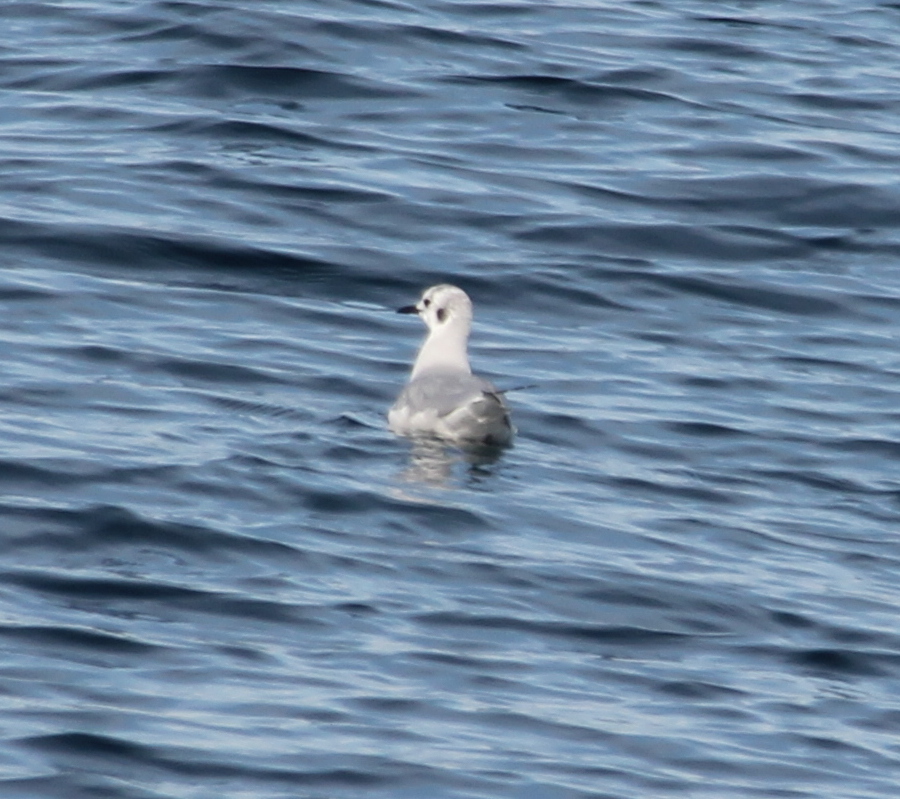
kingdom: Animalia
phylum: Chordata
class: Aves
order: Charadriiformes
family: Laridae
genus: Chroicocephalus
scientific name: Chroicocephalus philadelphia
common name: Bonaparte's gull
